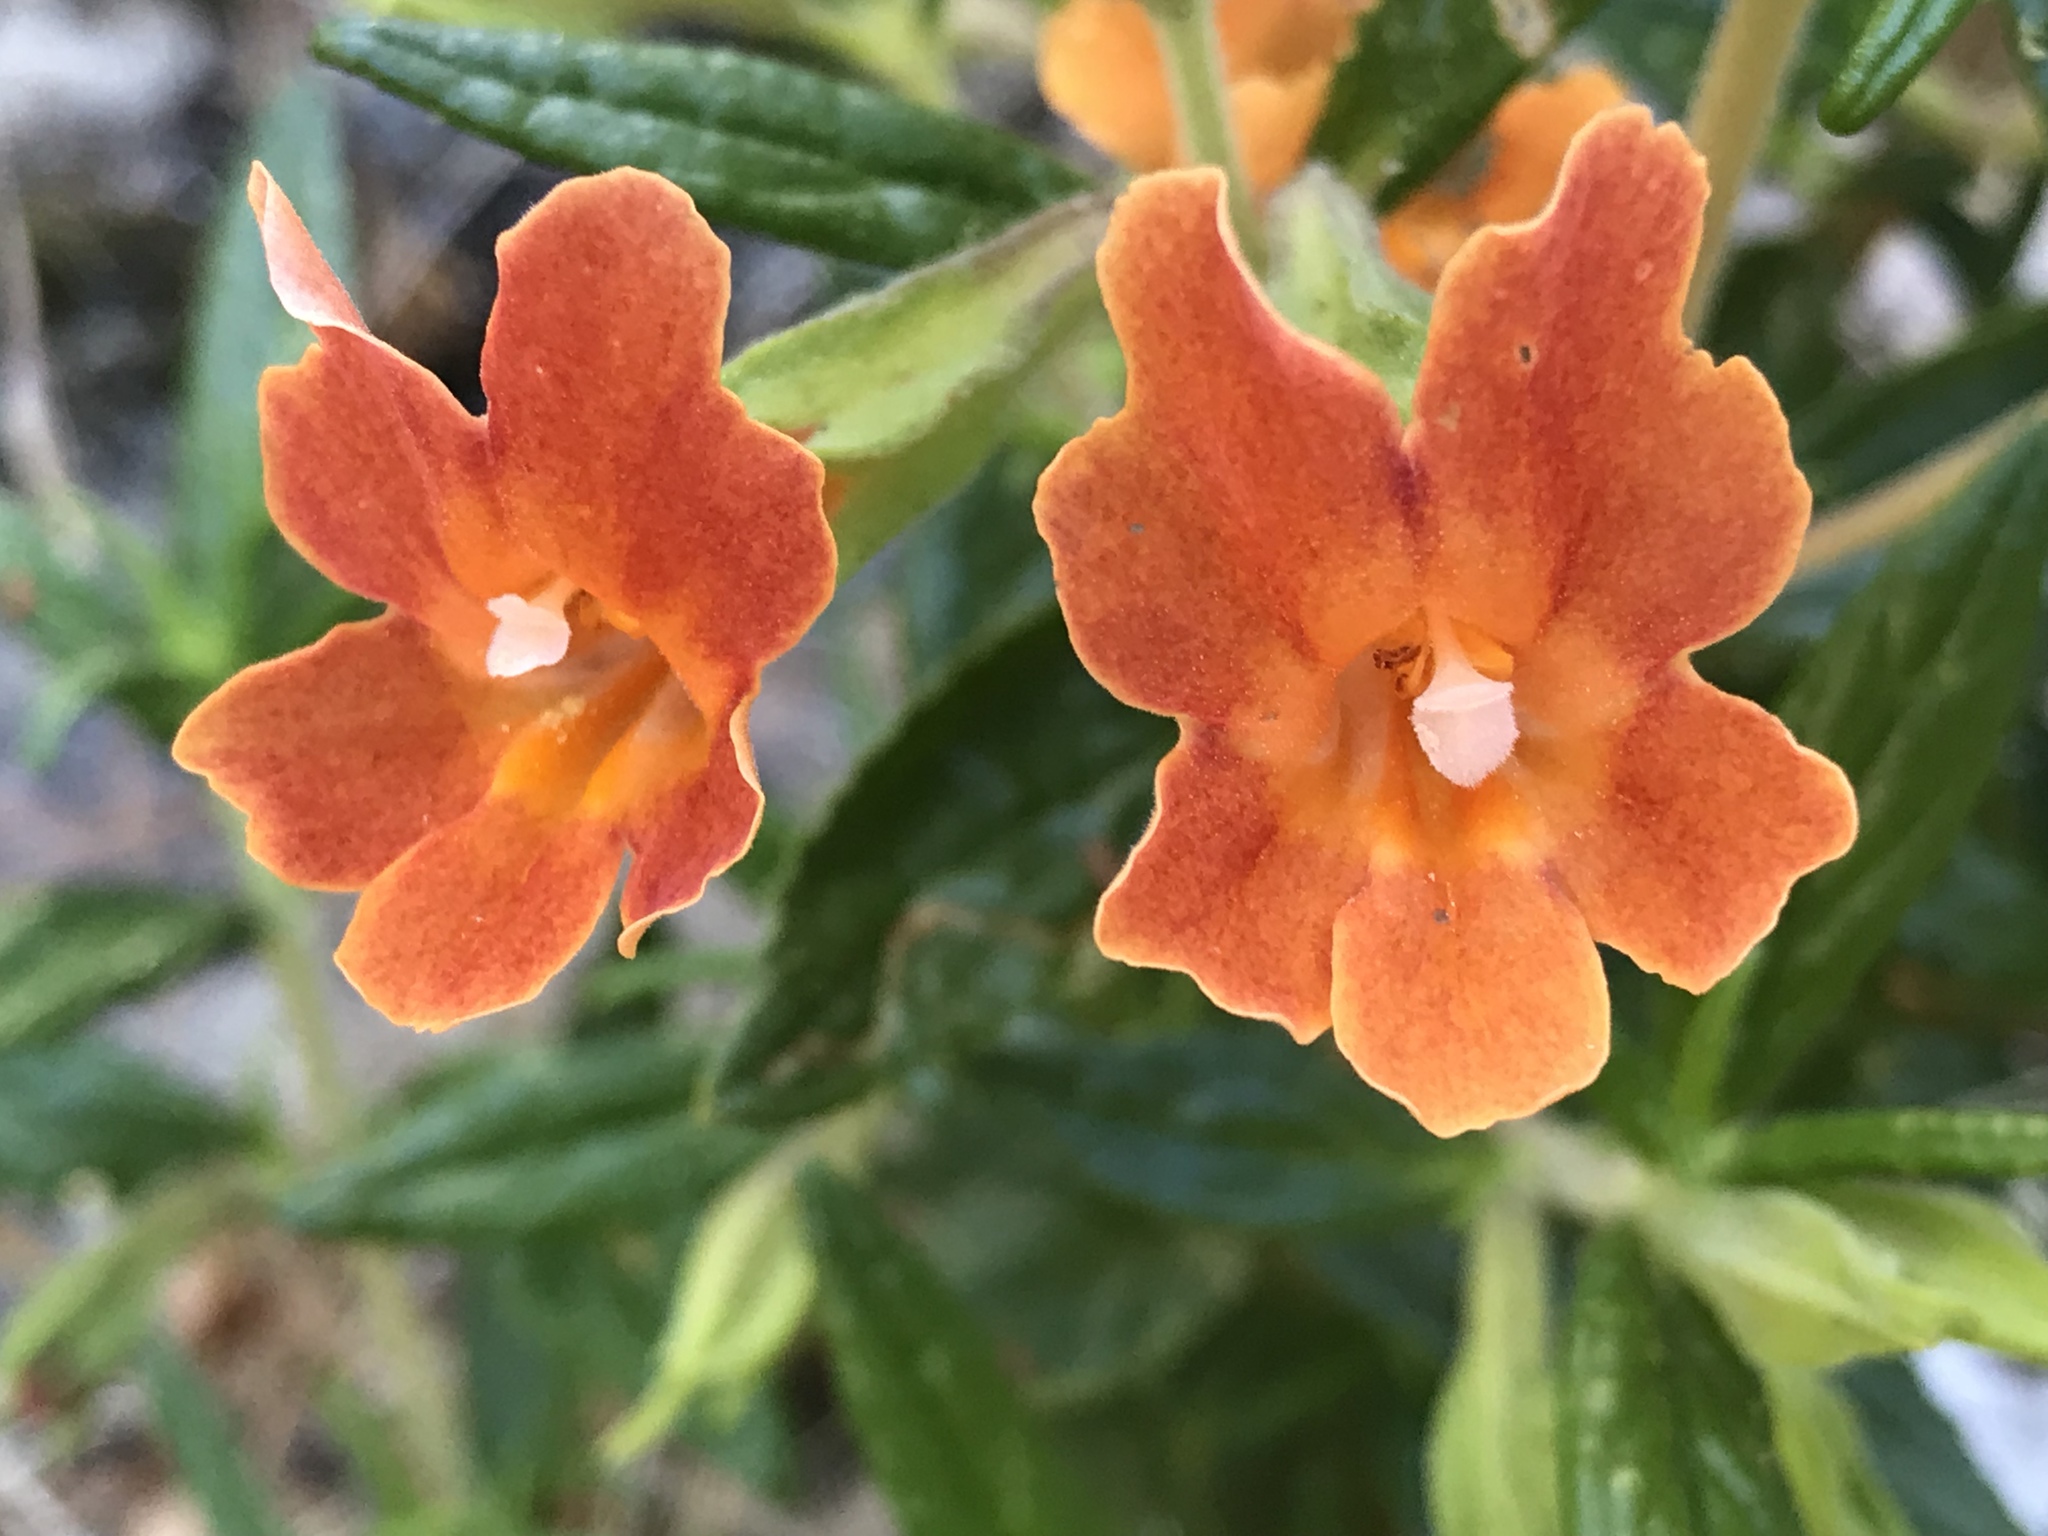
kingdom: Plantae
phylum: Tracheophyta
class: Magnoliopsida
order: Lamiales
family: Phrymaceae
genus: Diplacus
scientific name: Diplacus aurantiacus
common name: Bush monkey-flower
